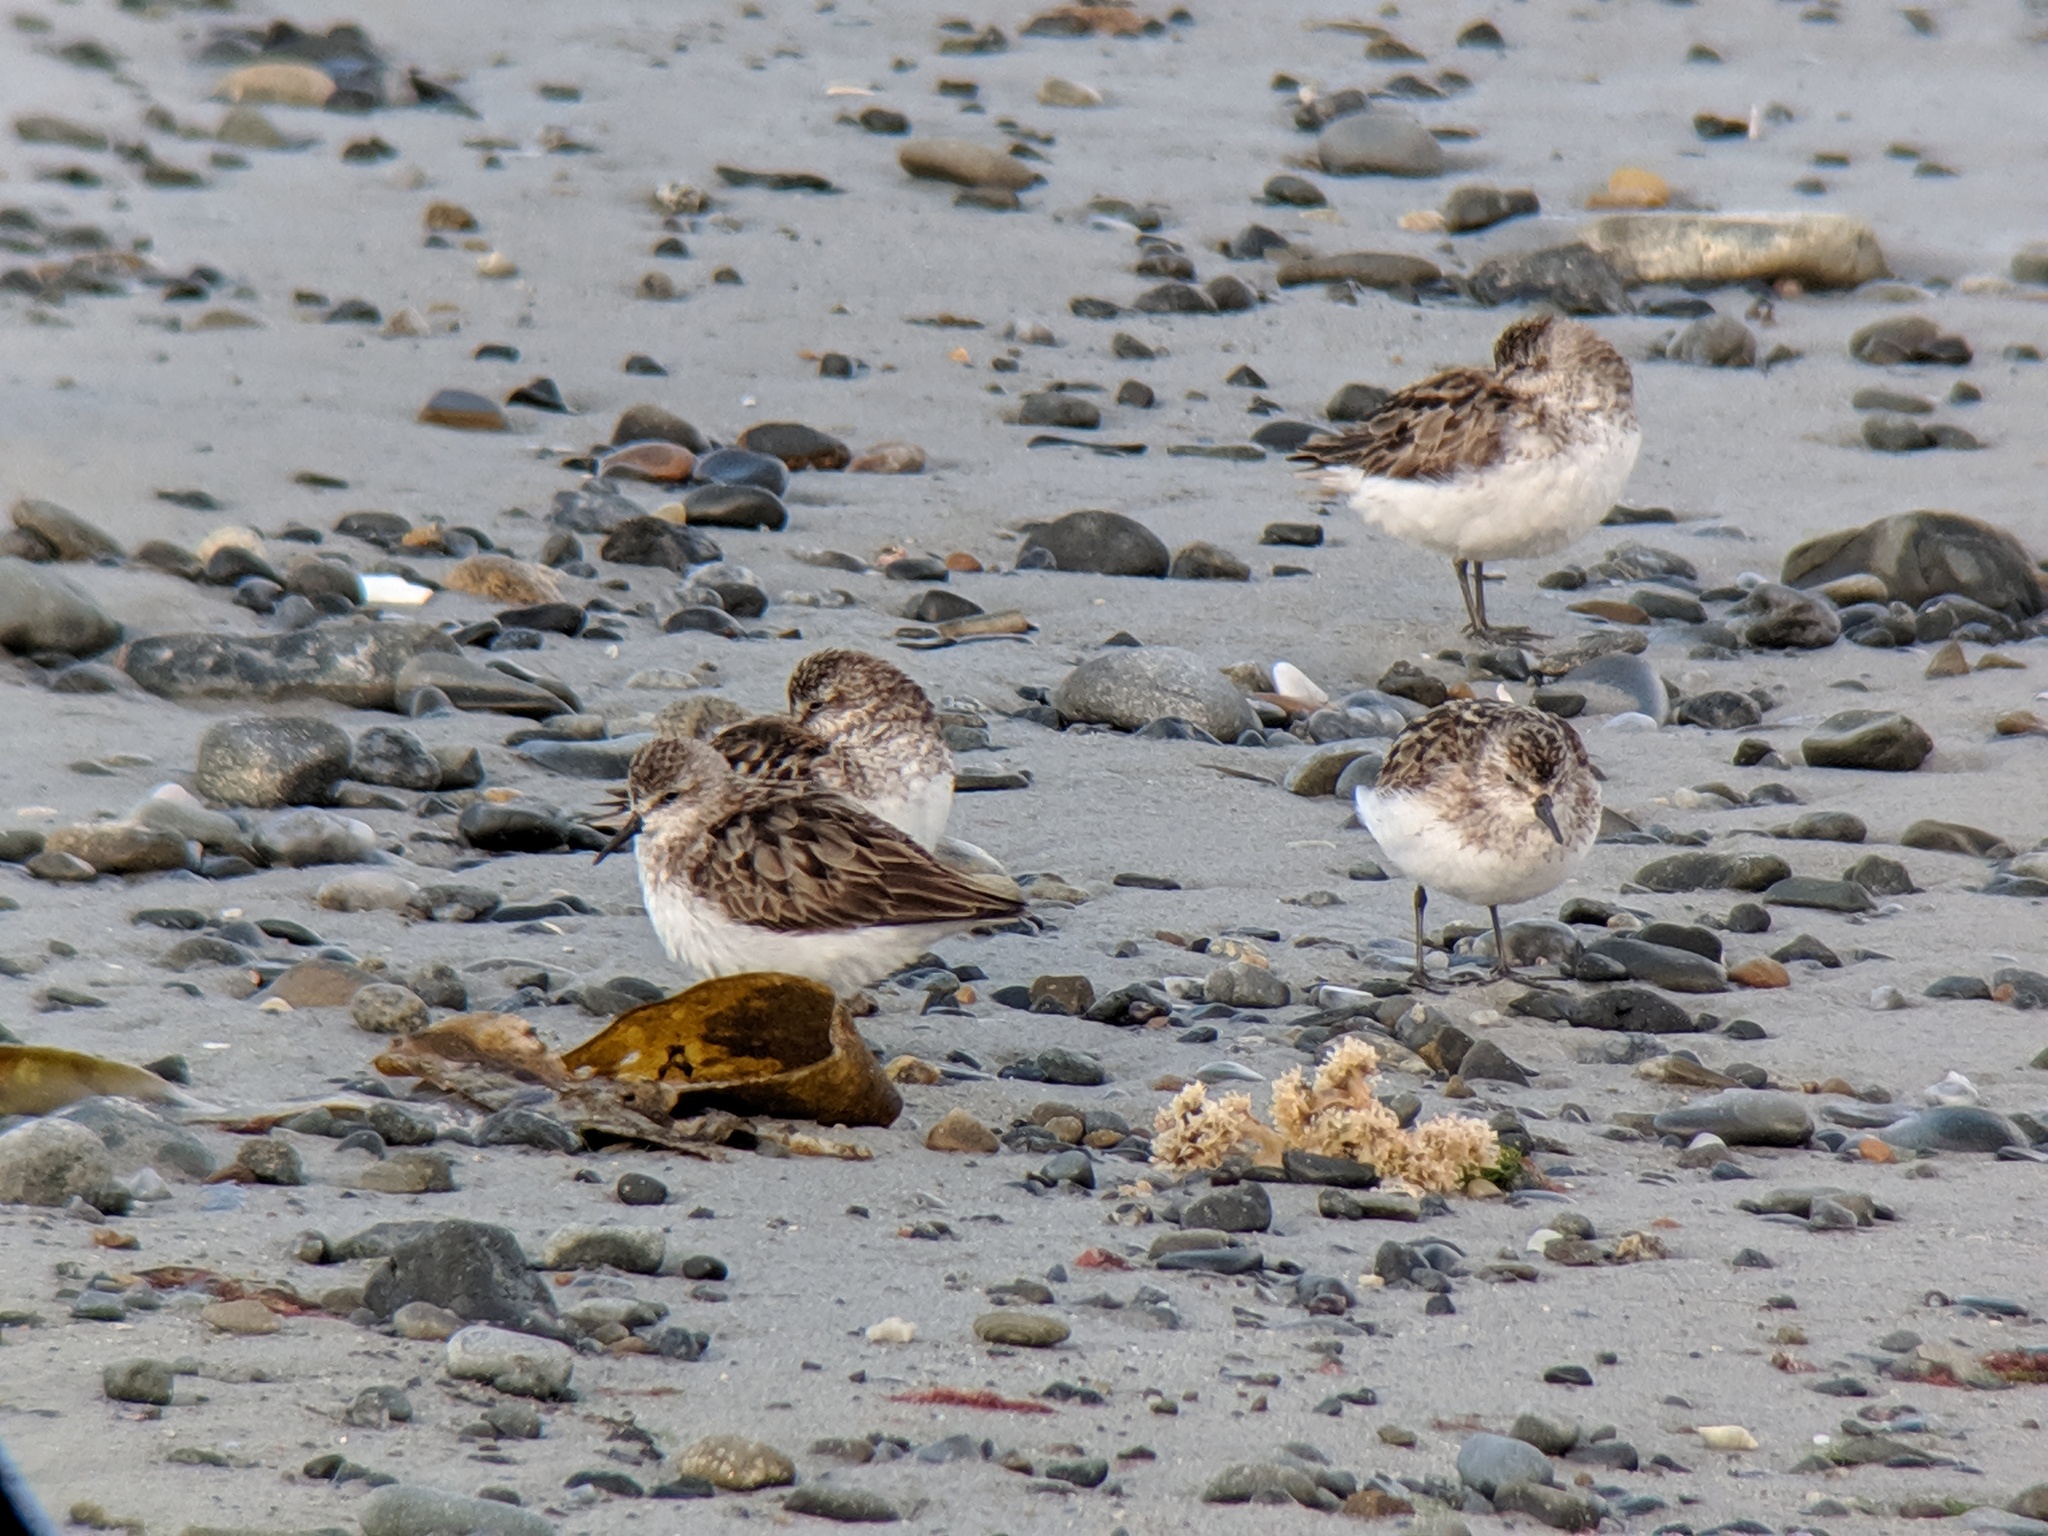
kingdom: Animalia
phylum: Chordata
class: Aves
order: Charadriiformes
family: Scolopacidae
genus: Calidris
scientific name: Calidris pusilla
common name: Semipalmated sandpiper
